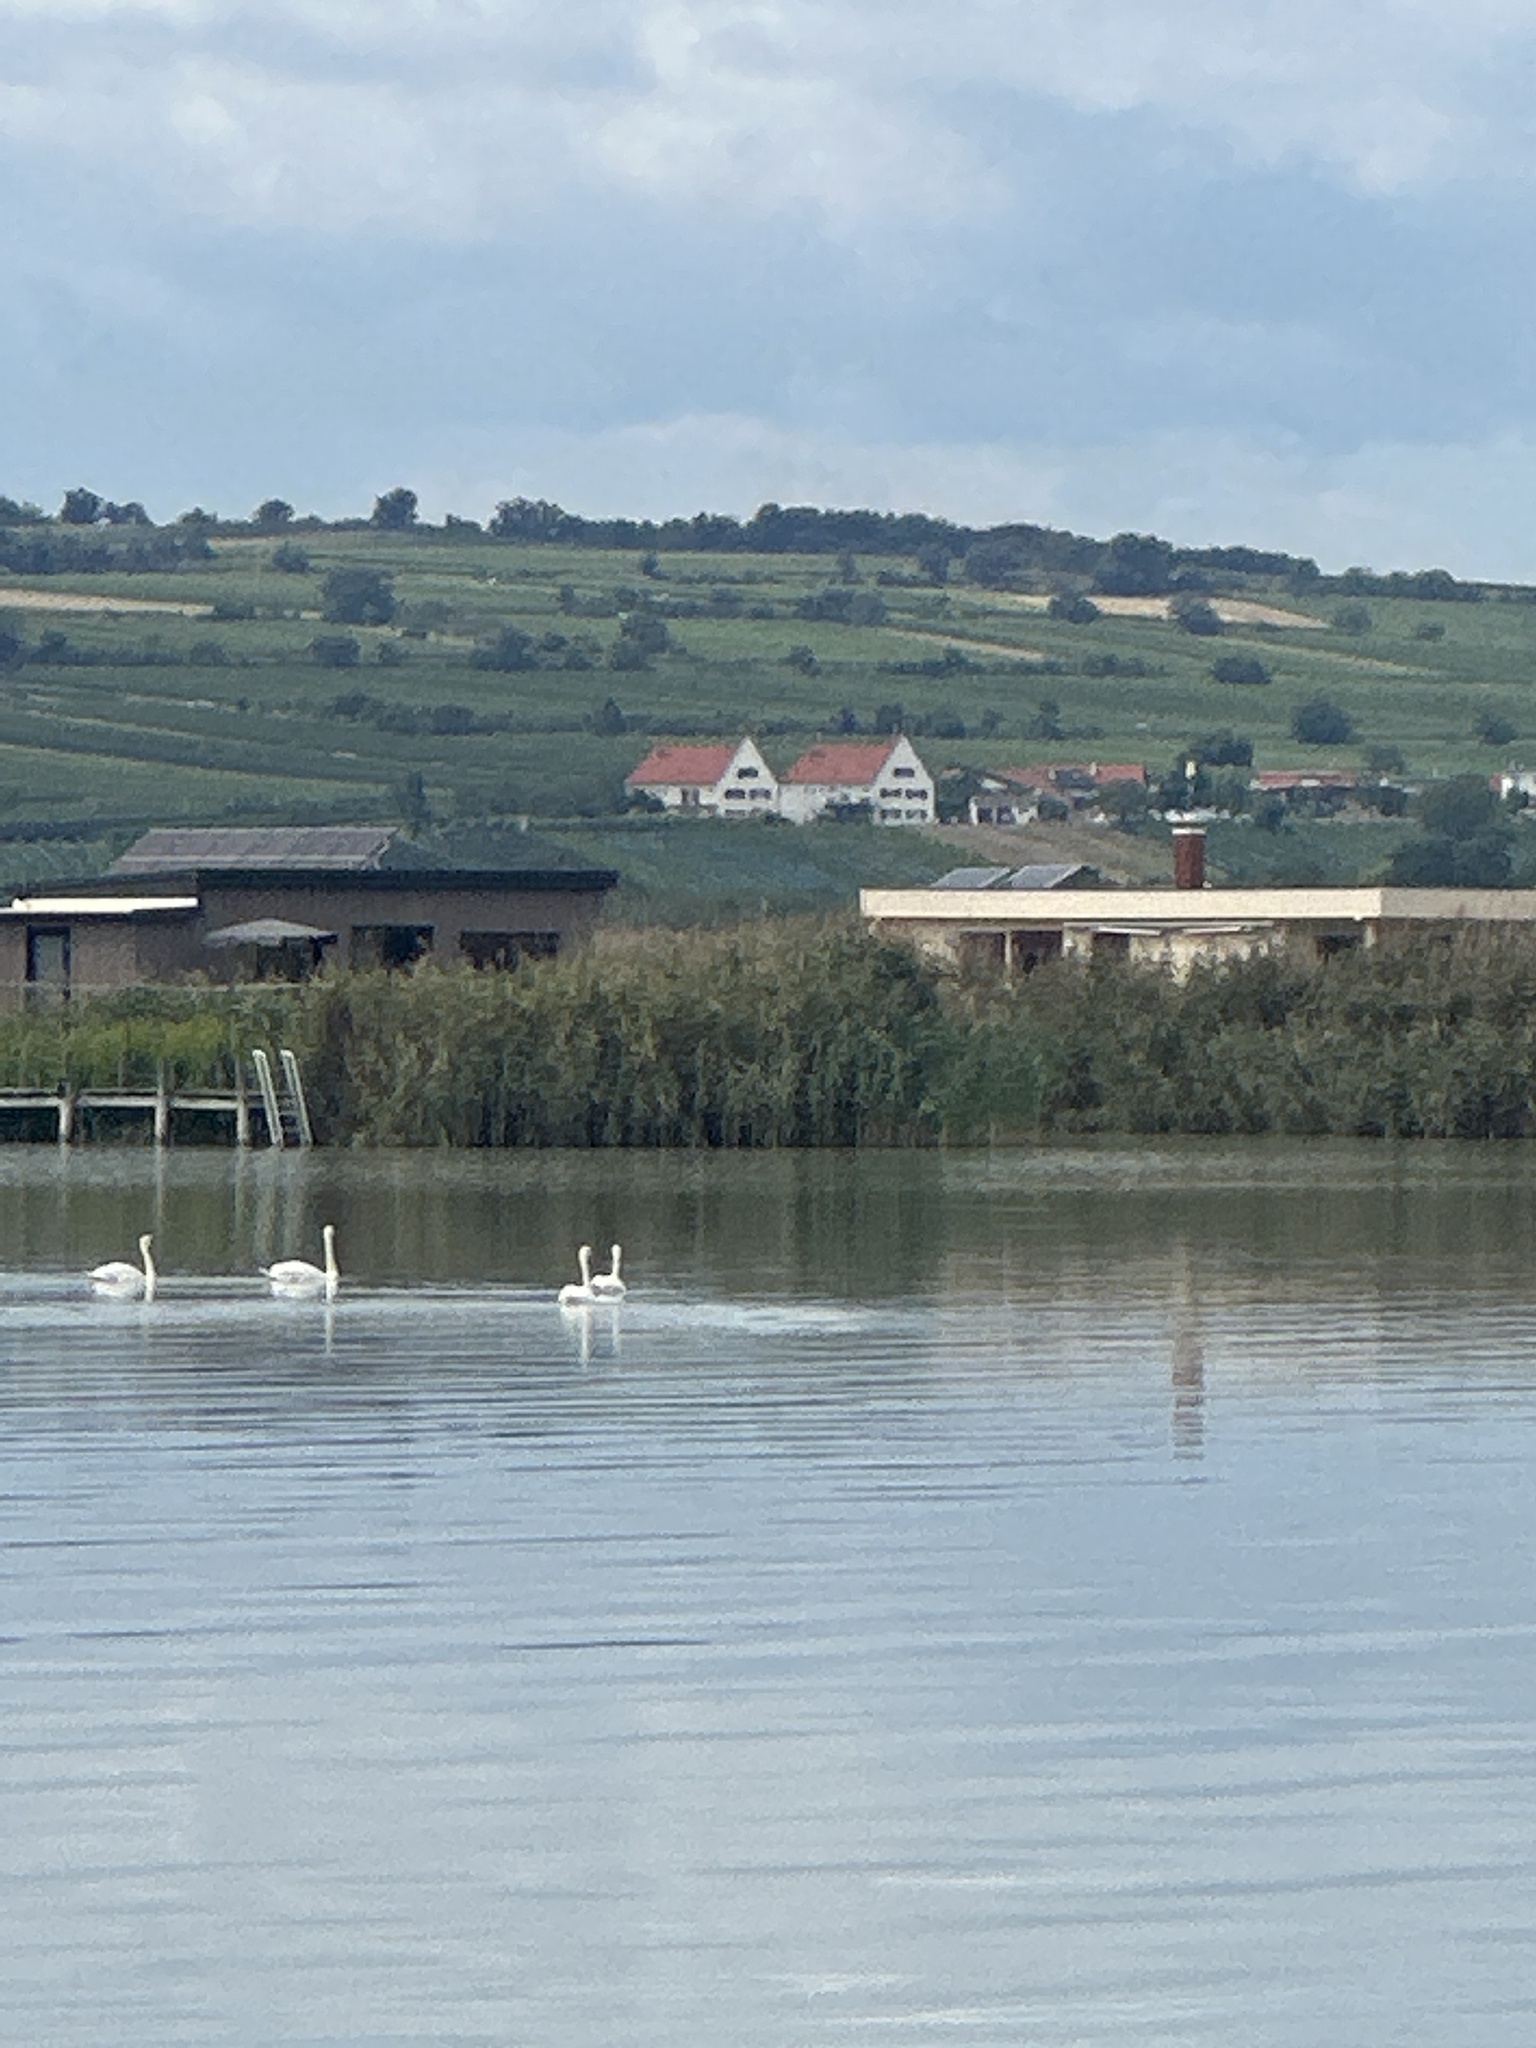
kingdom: Animalia
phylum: Chordata
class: Aves
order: Anseriformes
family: Anatidae
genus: Cygnus
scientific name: Cygnus olor
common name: Mute swan
